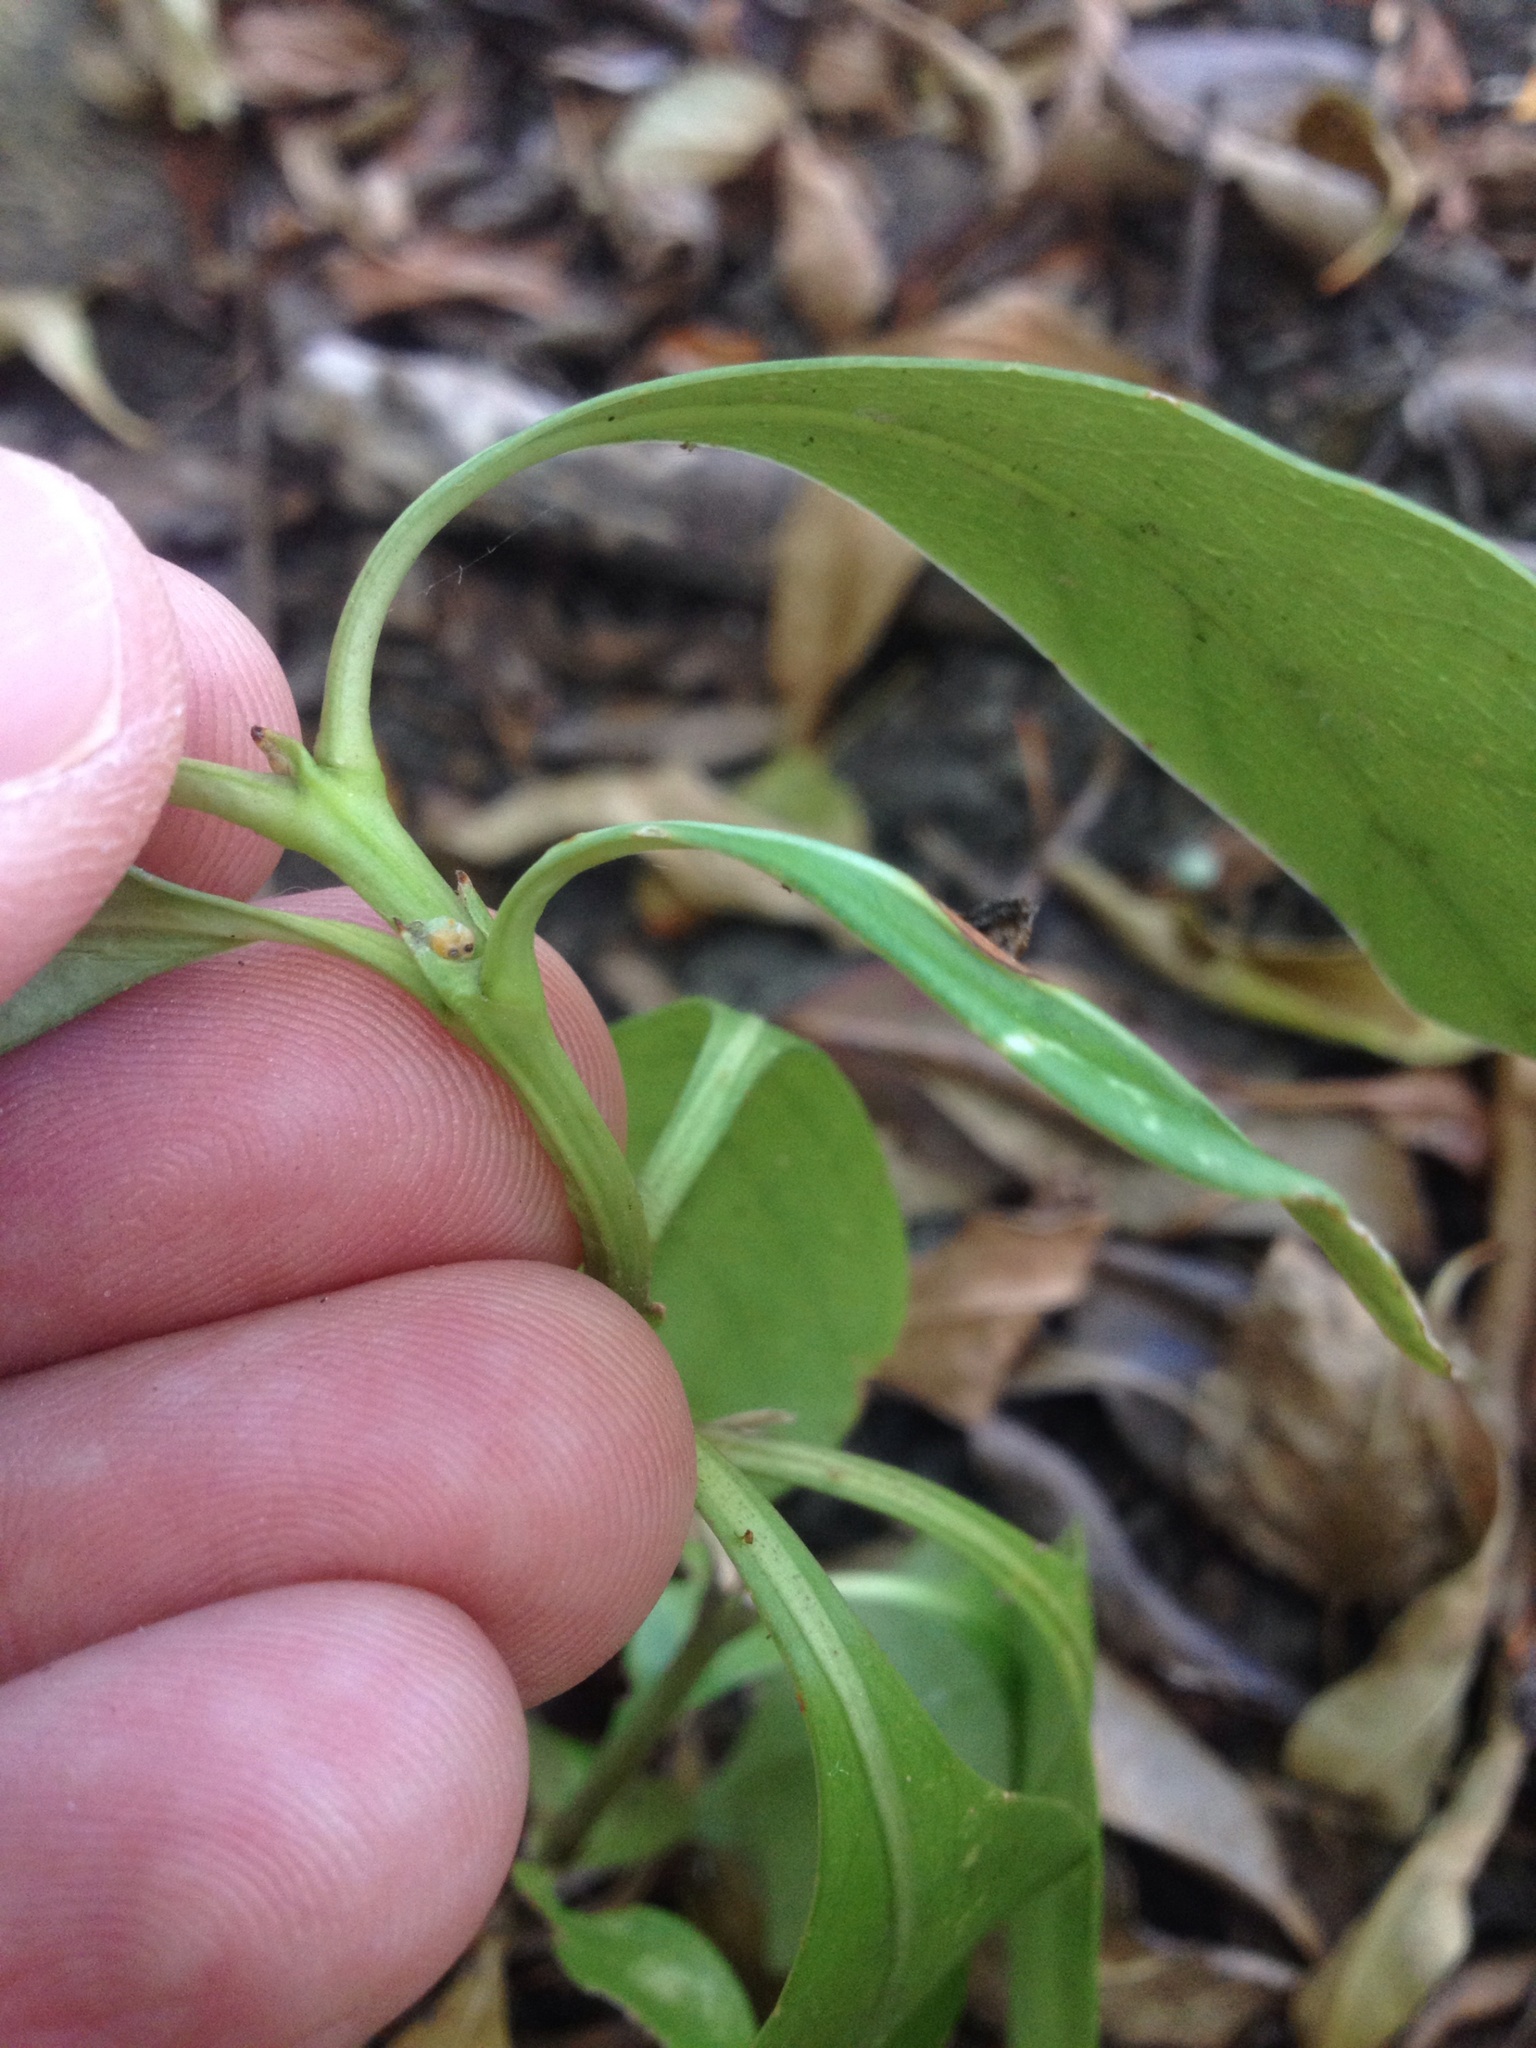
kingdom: Plantae
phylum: Tracheophyta
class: Magnoliopsida
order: Gentianales
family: Rubiaceae
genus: Coprosma
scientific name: Coprosma lucida
